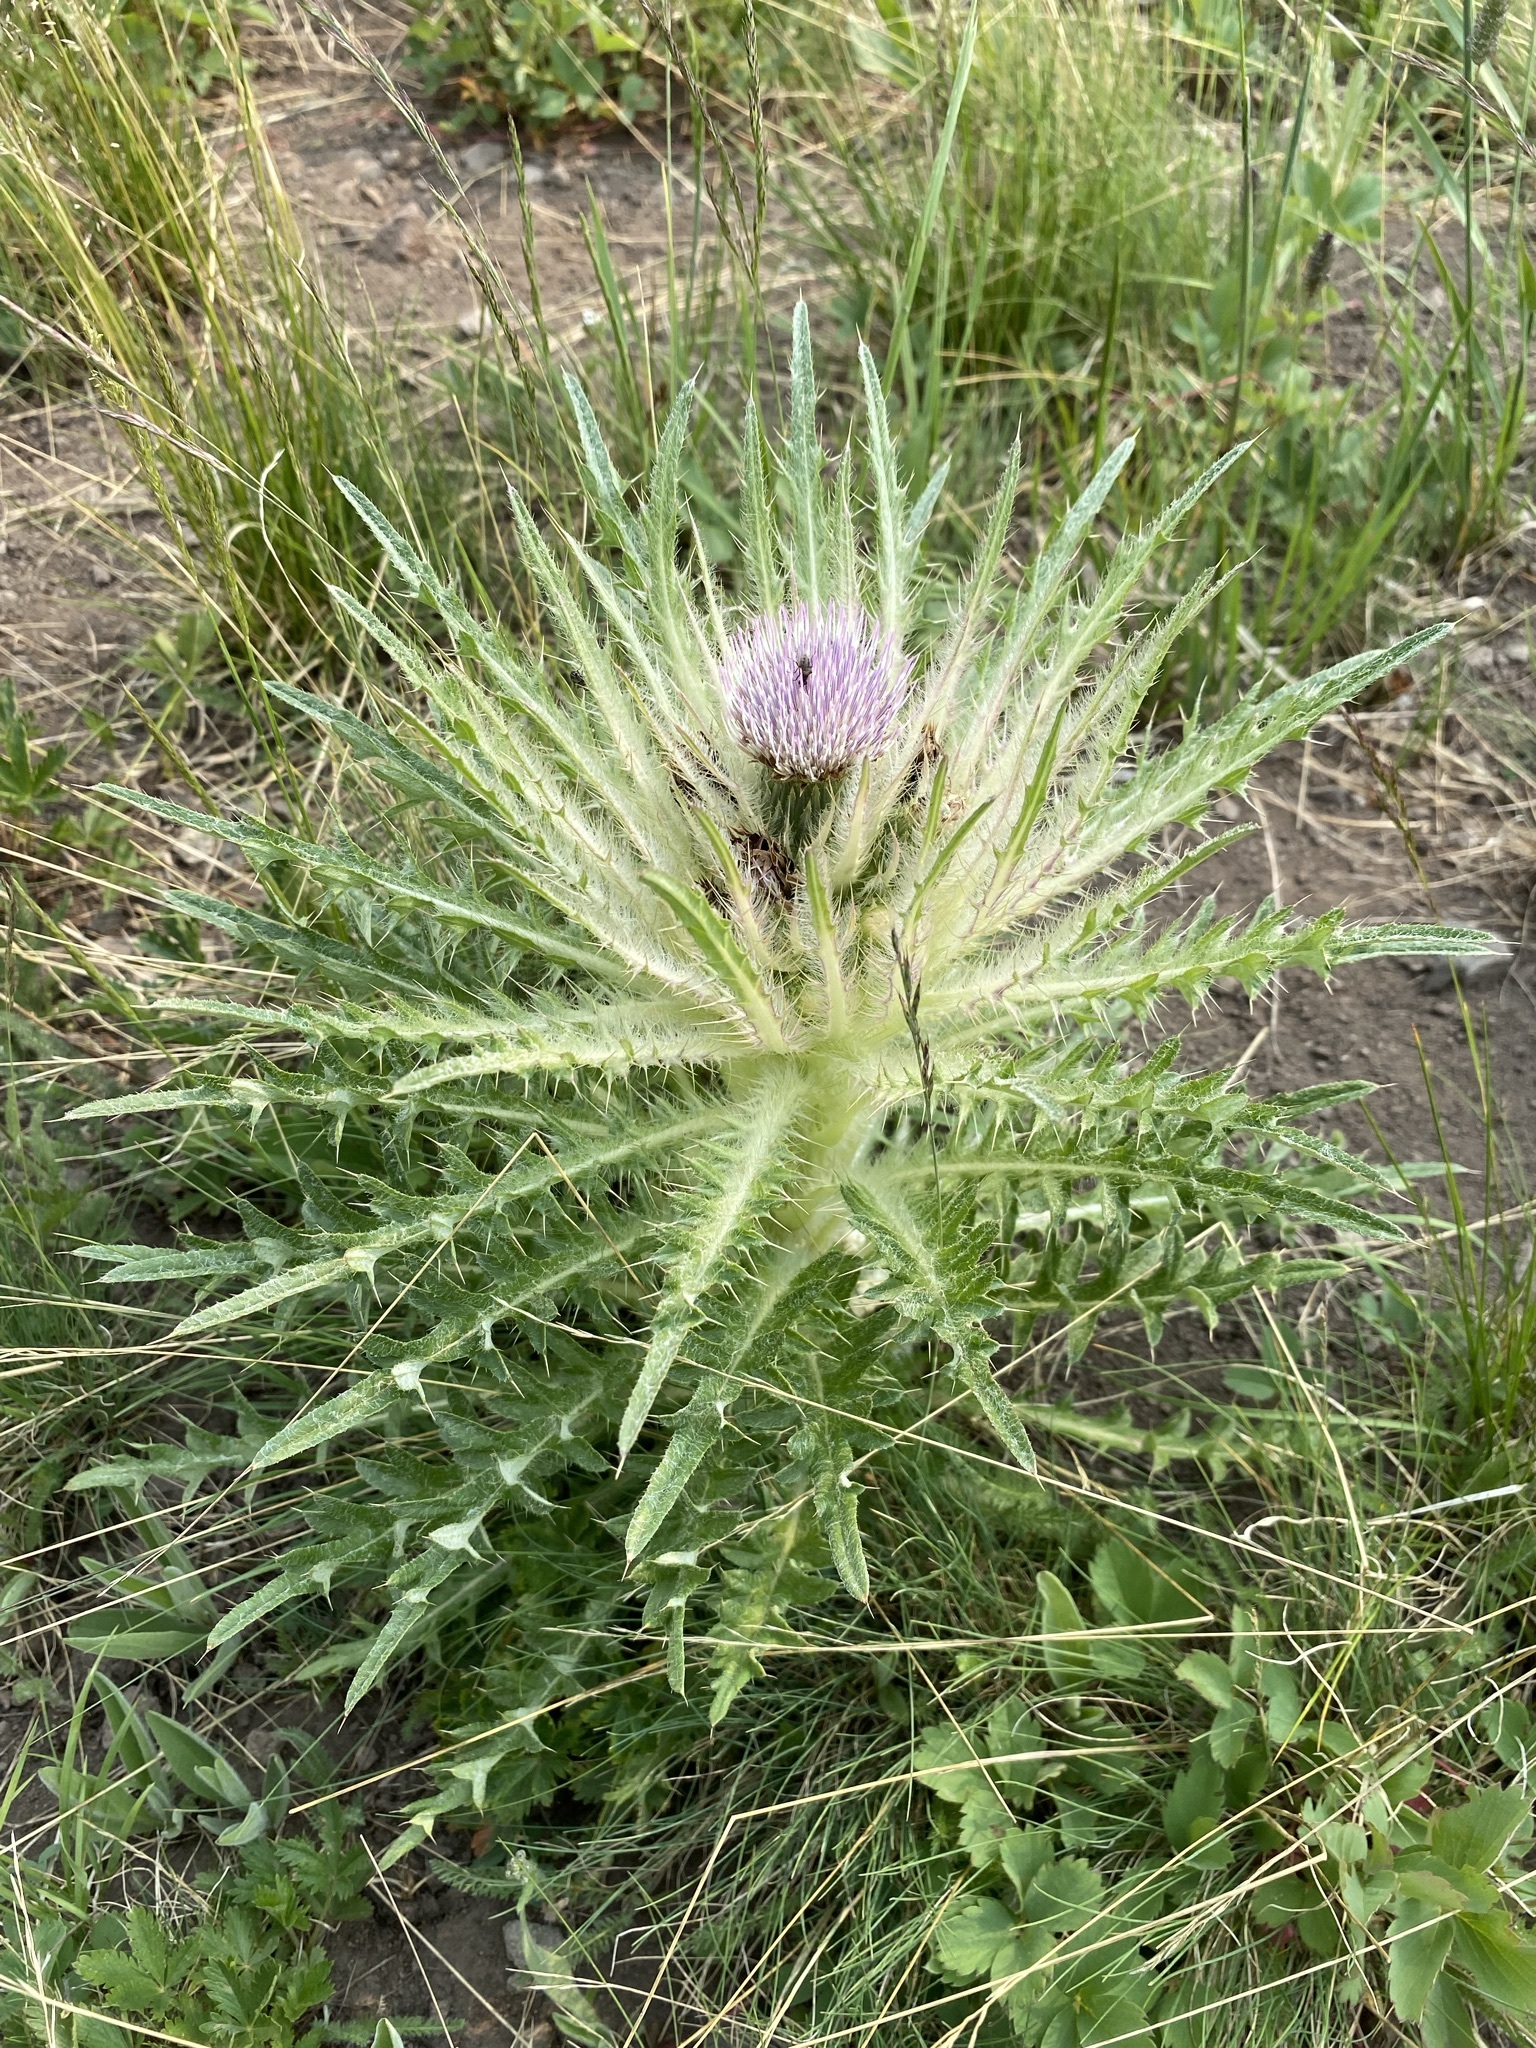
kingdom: Plantae
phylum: Tracheophyta
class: Magnoliopsida
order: Asterales
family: Asteraceae
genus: Cirsium
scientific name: Cirsium scariosum
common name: Meadow thistle
